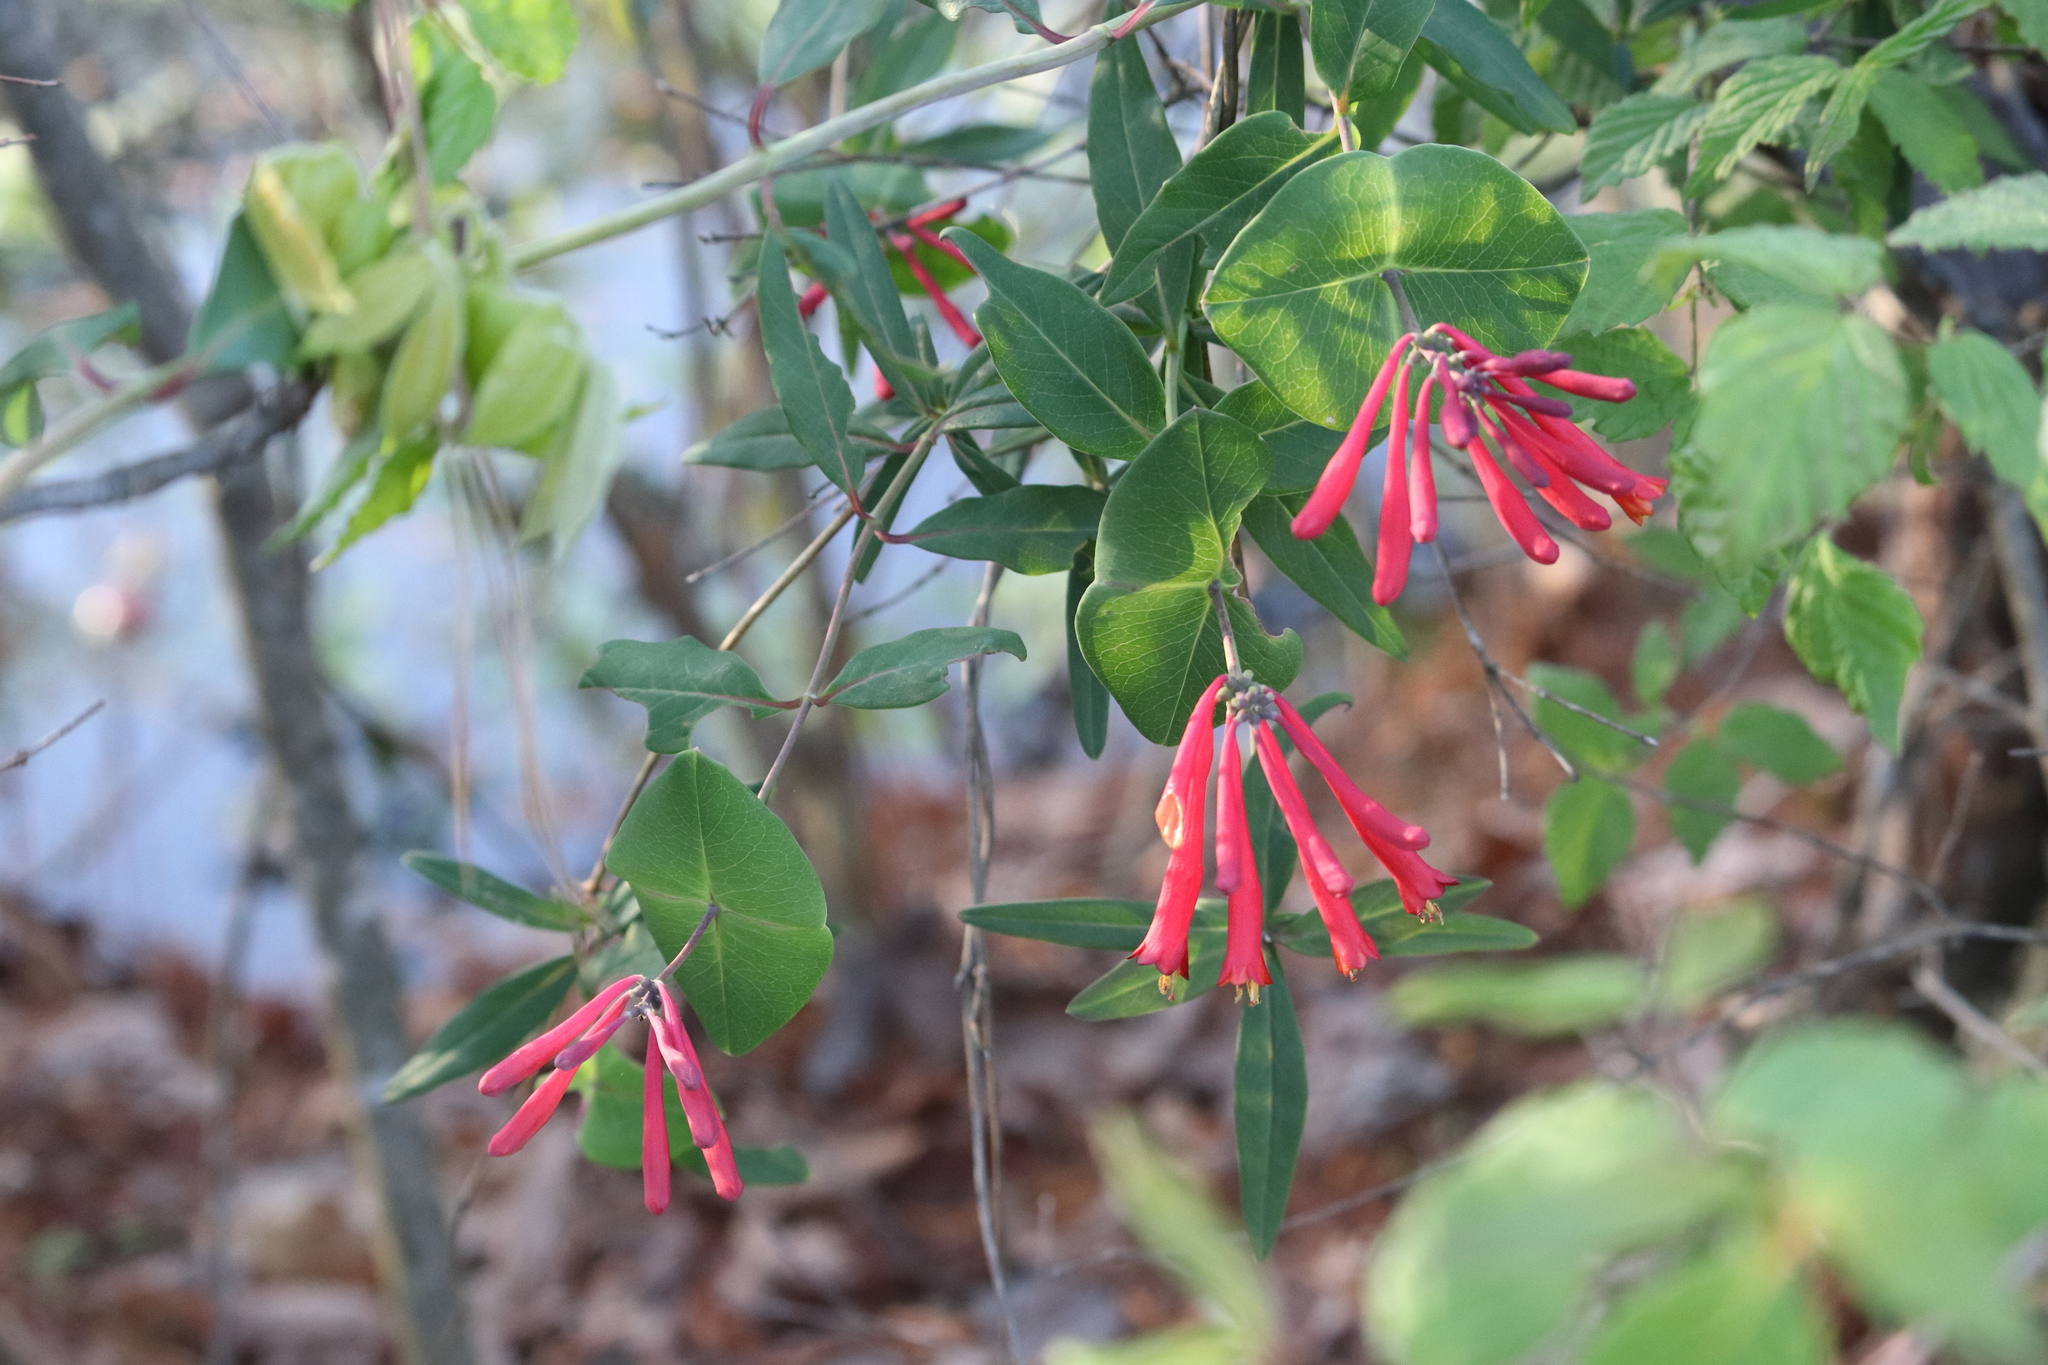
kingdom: Plantae
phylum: Tracheophyta
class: Magnoliopsida
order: Dipsacales
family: Caprifoliaceae
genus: Lonicera
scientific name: Lonicera sempervirens
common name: Coral honeysuckle
